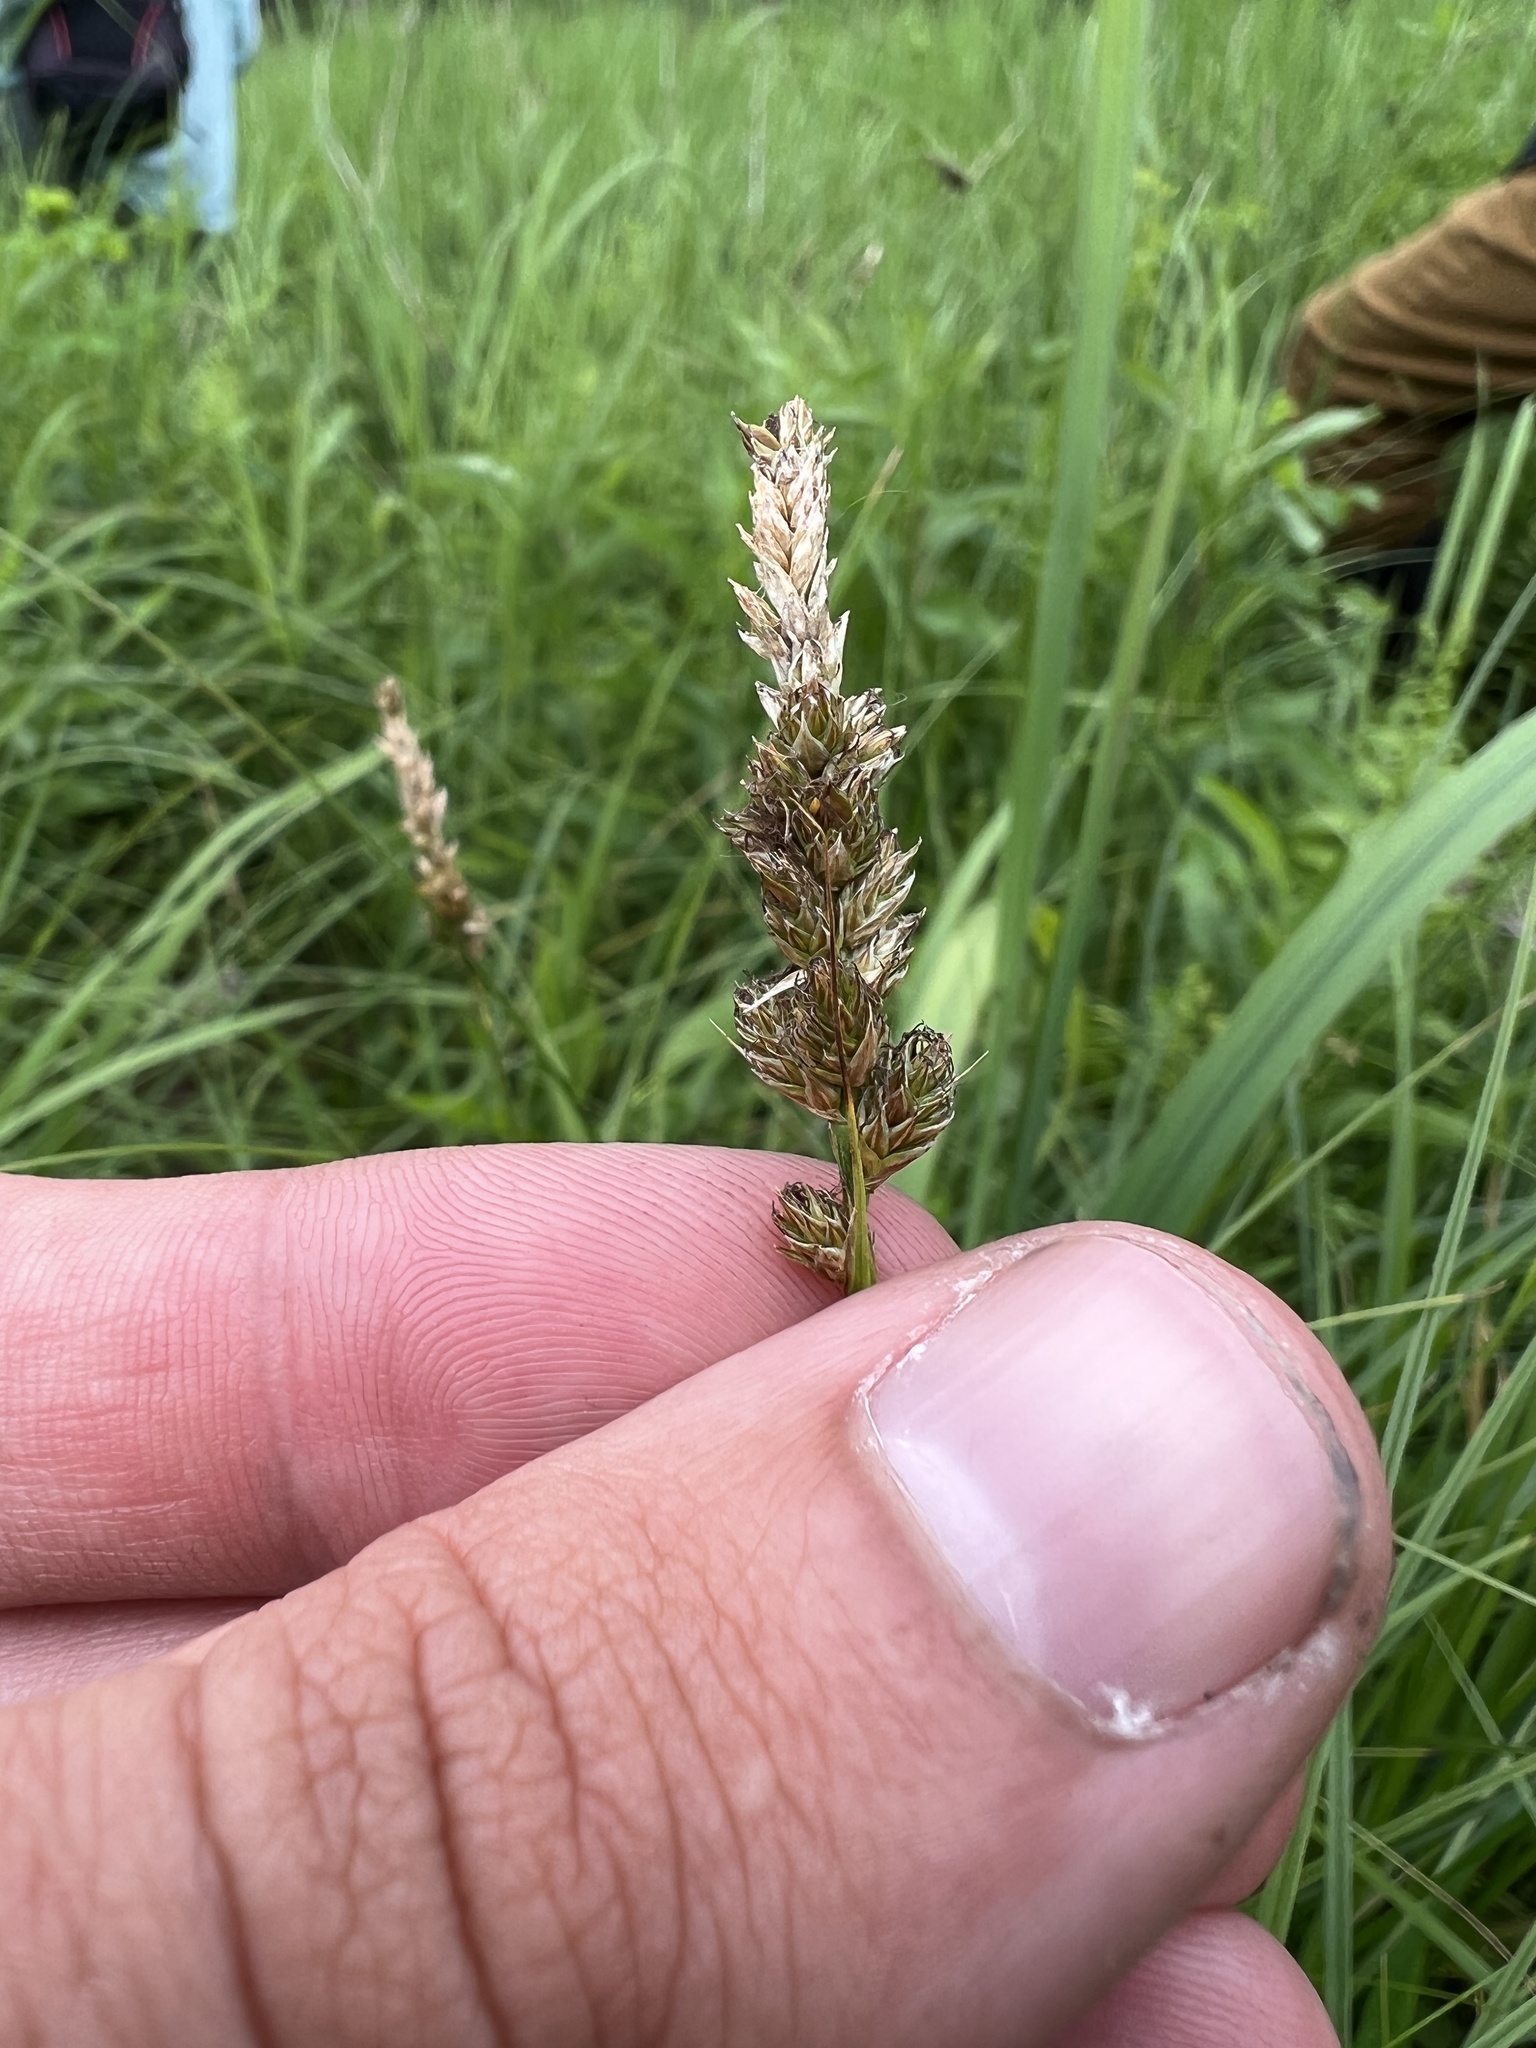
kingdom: Plantae
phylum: Tracheophyta
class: Liliopsida
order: Poales
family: Cyperaceae
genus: Carex
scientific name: Carex sartwellii
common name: Sartwell's sedge
